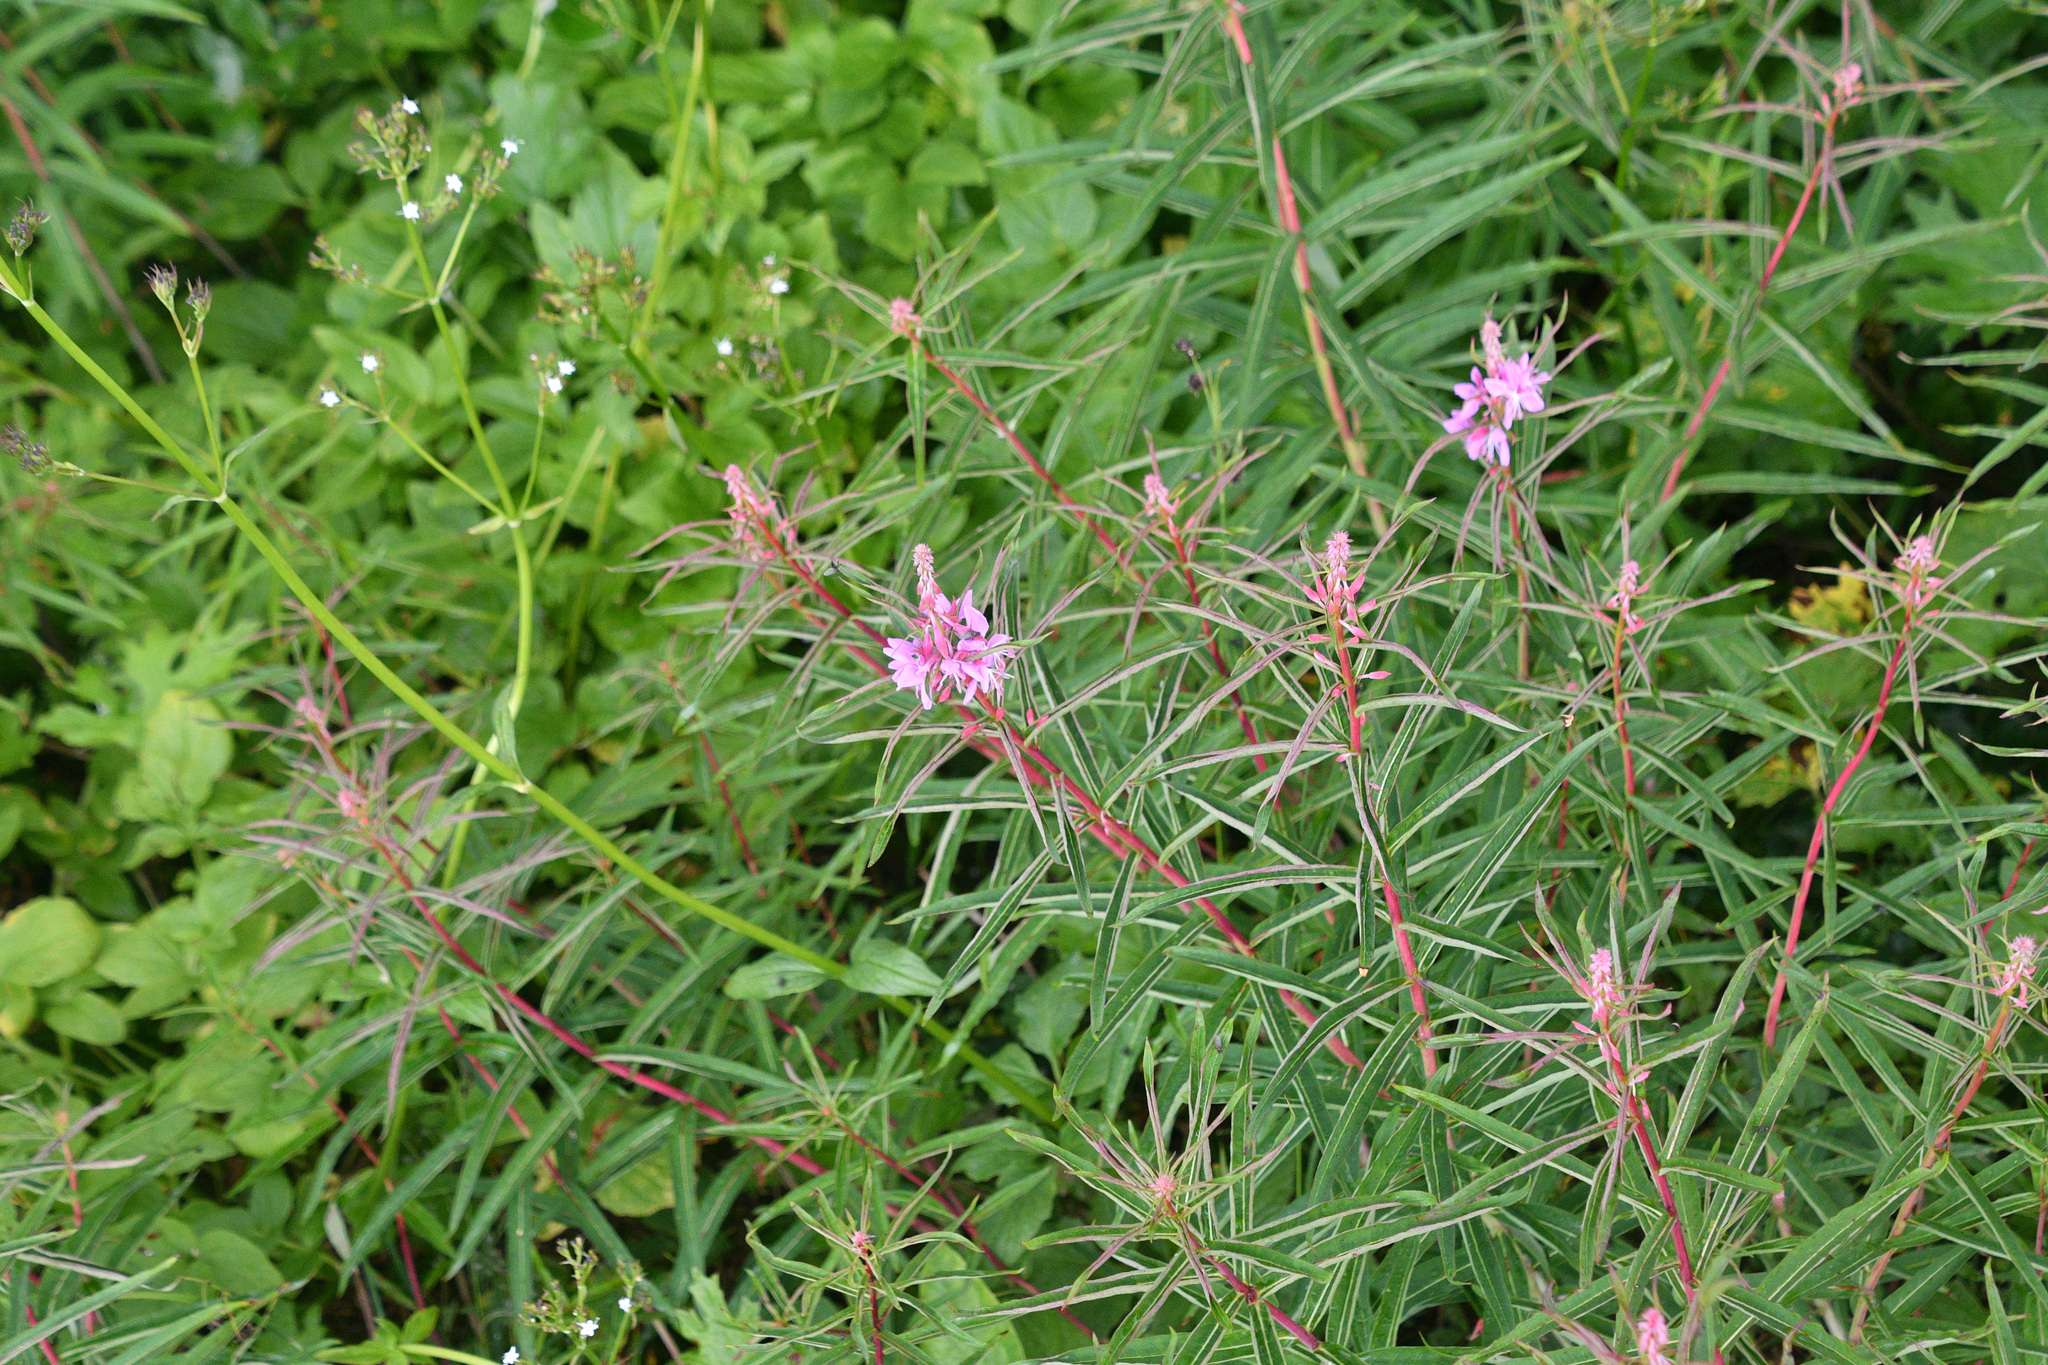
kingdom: Plantae
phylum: Tracheophyta
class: Magnoliopsida
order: Myrtales
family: Onagraceae
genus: Chamaenerion
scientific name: Chamaenerion angustifolium
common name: Fireweed
